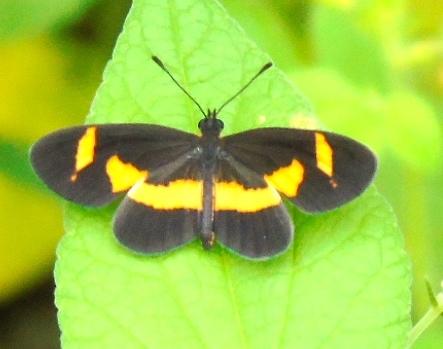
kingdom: Animalia
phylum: Arthropoda
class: Insecta
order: Lepidoptera
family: Nymphalidae
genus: Microtia
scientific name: Microtia elva
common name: Elf
